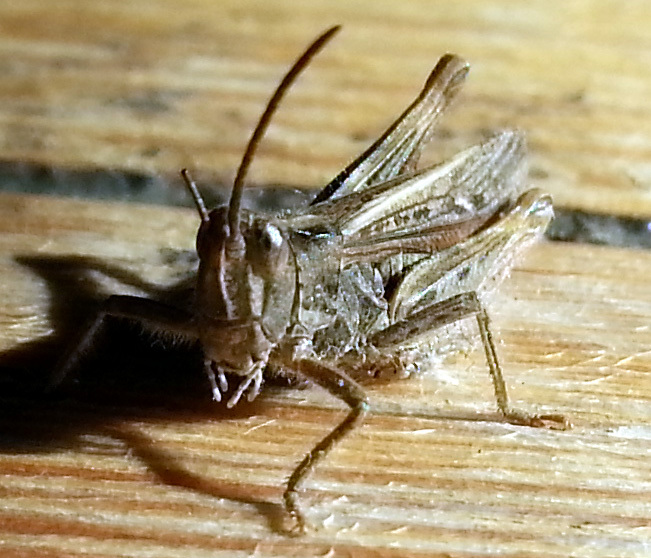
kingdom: Animalia
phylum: Arthropoda
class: Insecta
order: Orthoptera
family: Acrididae
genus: Chorthippus
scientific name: Chorthippus brunneus
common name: Field grasshopper
